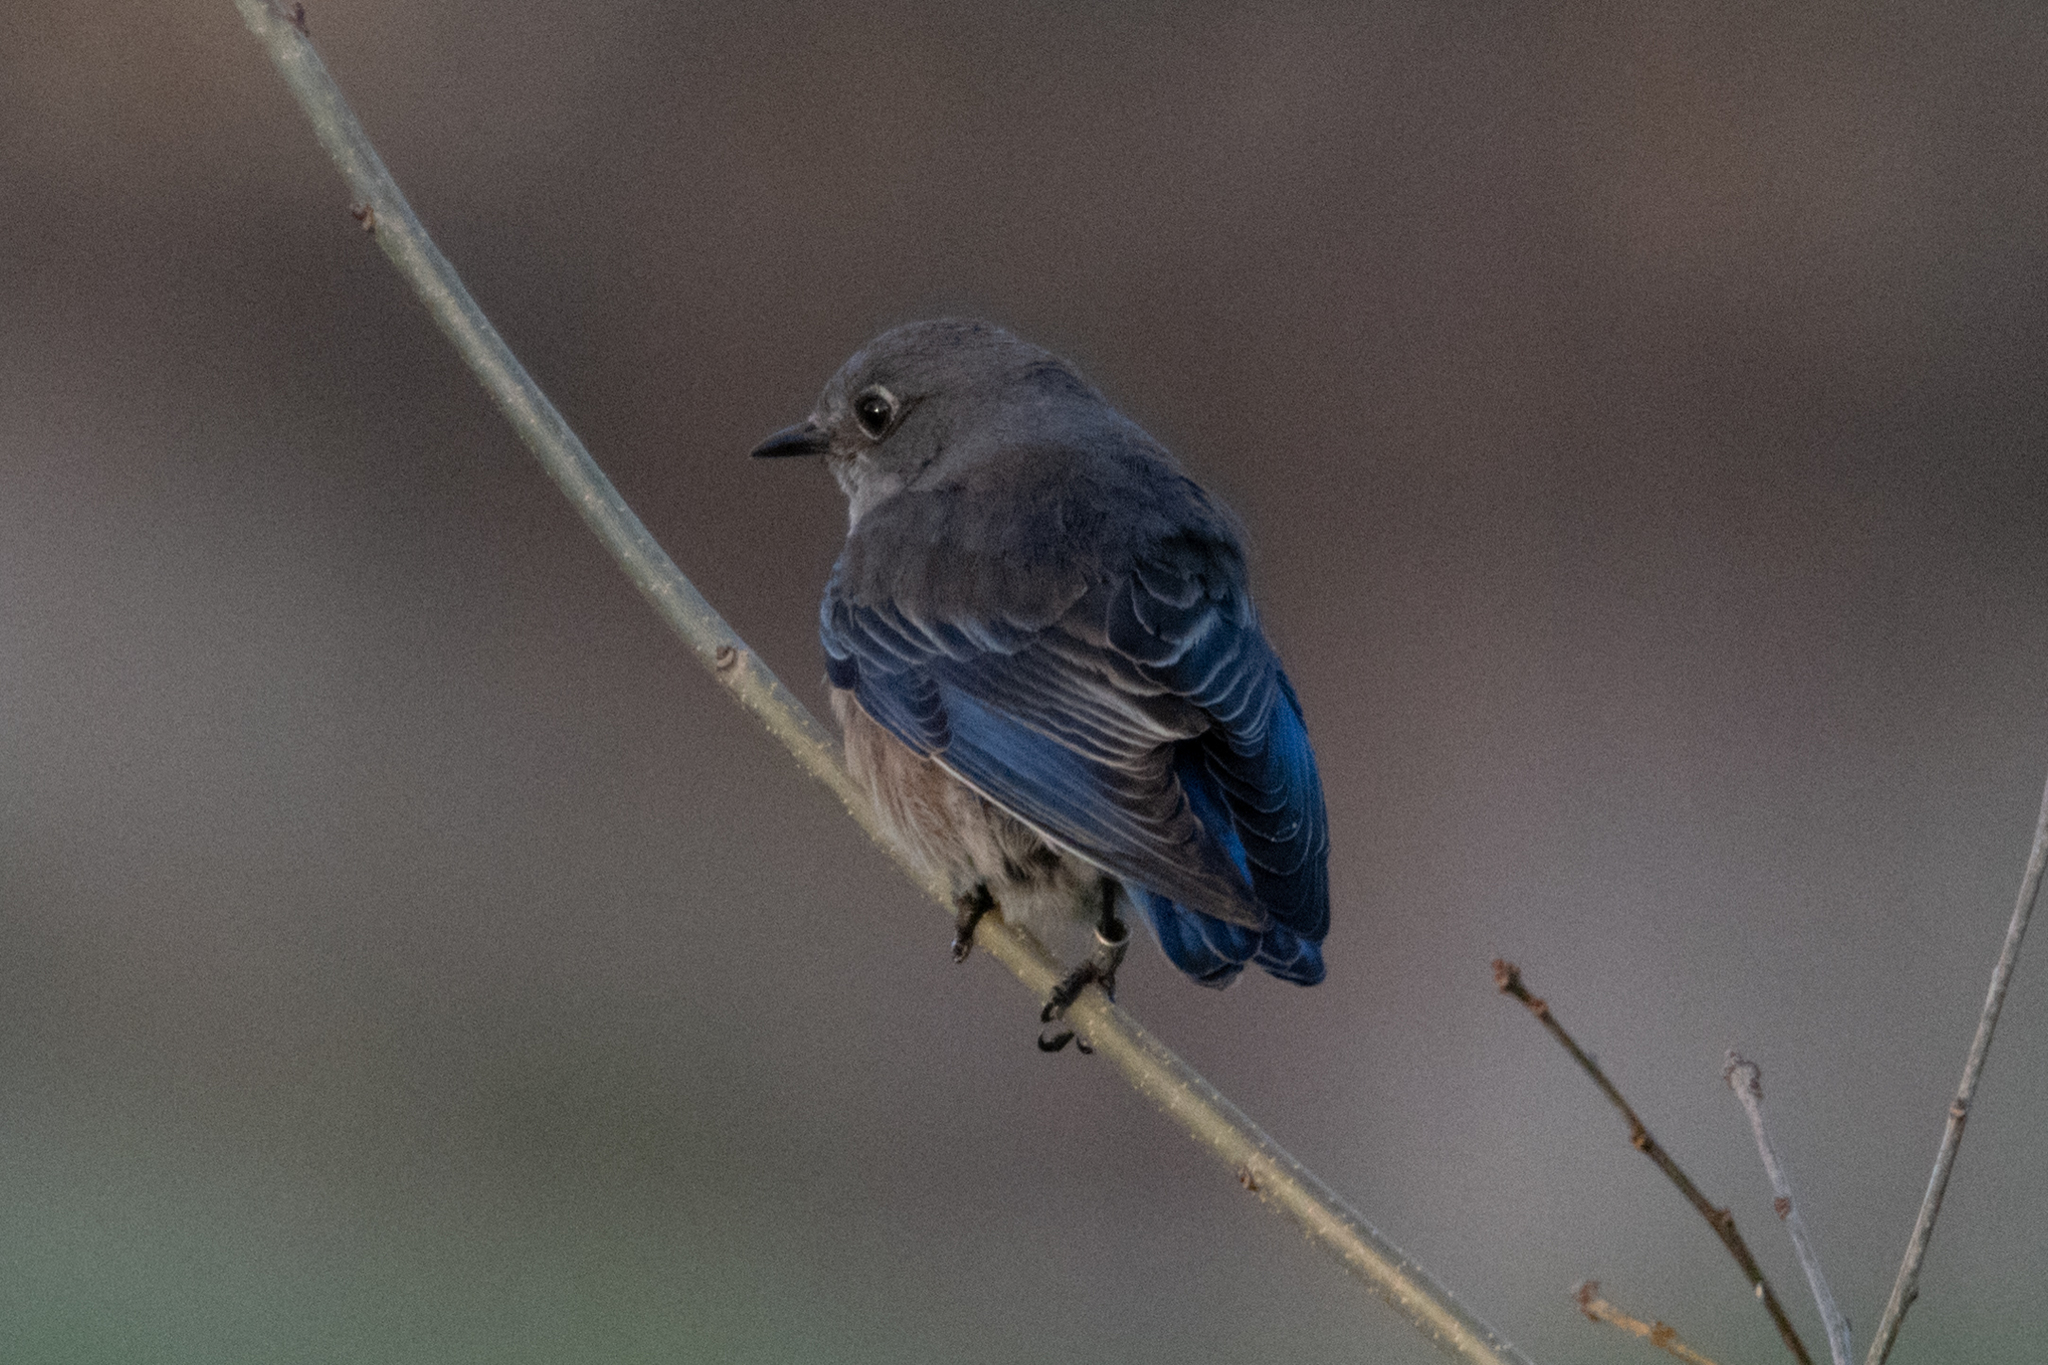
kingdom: Animalia
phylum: Chordata
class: Aves
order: Passeriformes
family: Turdidae
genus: Sialia
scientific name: Sialia mexicana
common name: Western bluebird
